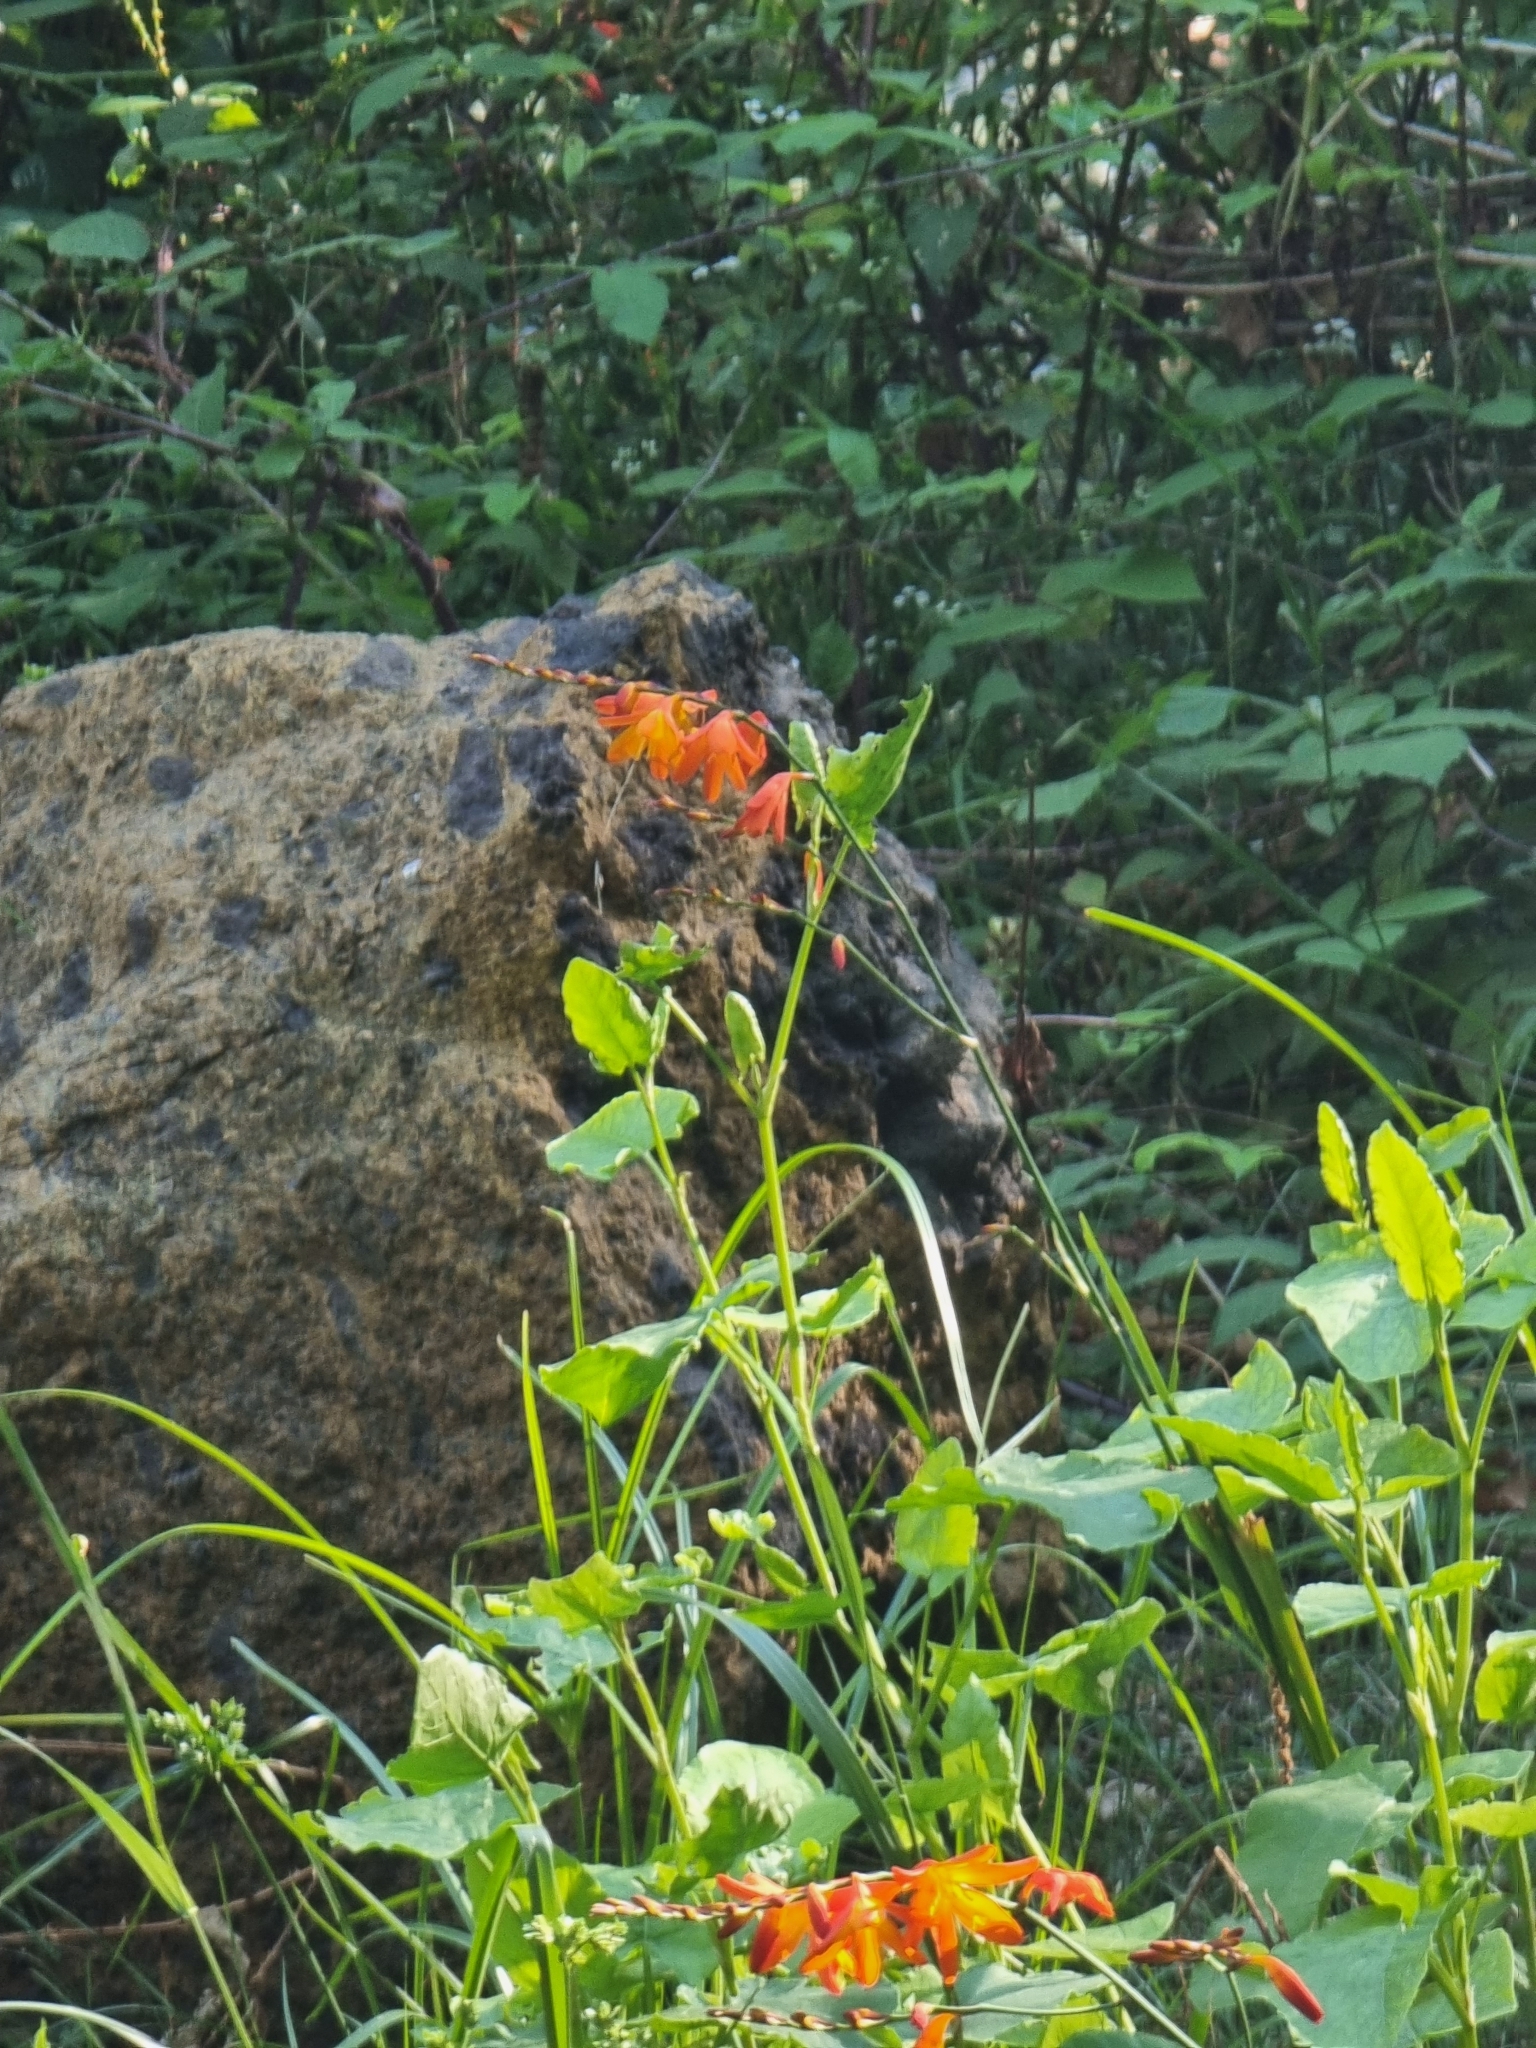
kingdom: Plantae
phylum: Tracheophyta
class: Liliopsida
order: Asparagales
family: Iridaceae
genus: Crocosmia
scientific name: Crocosmia crocosmiiflora
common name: Montbretia
